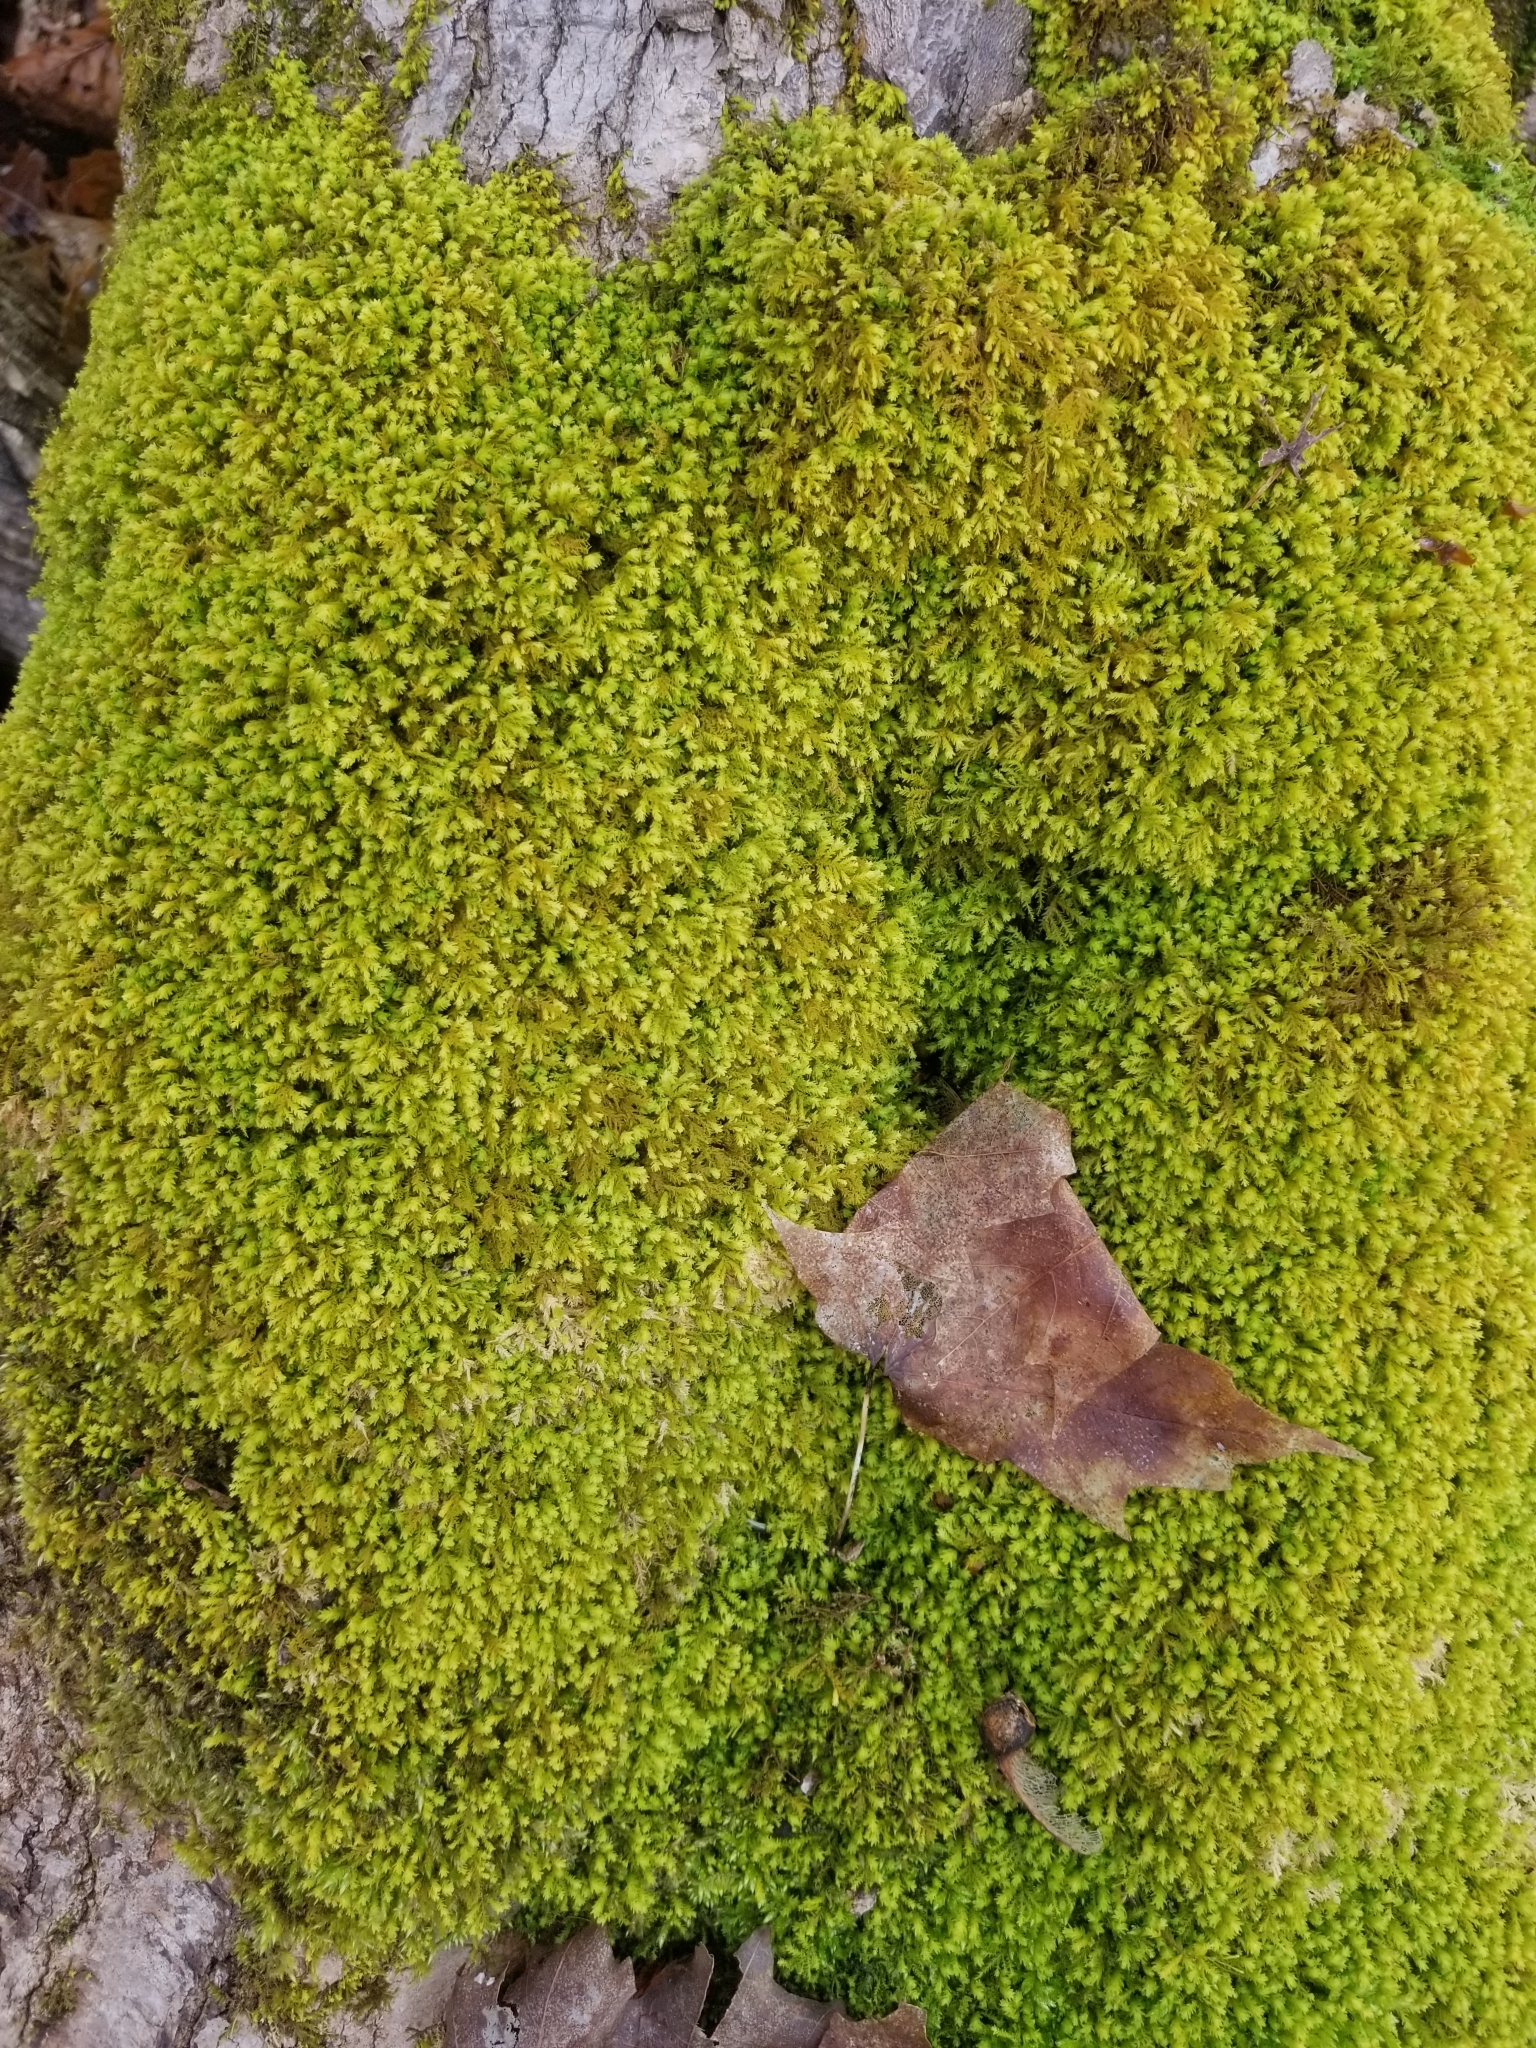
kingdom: Plantae
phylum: Bryophyta
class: Bryopsida
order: Hypnales
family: Neckeraceae
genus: Pseudanomodon
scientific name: Pseudanomodon attenuatus
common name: Tree-skirt moss
